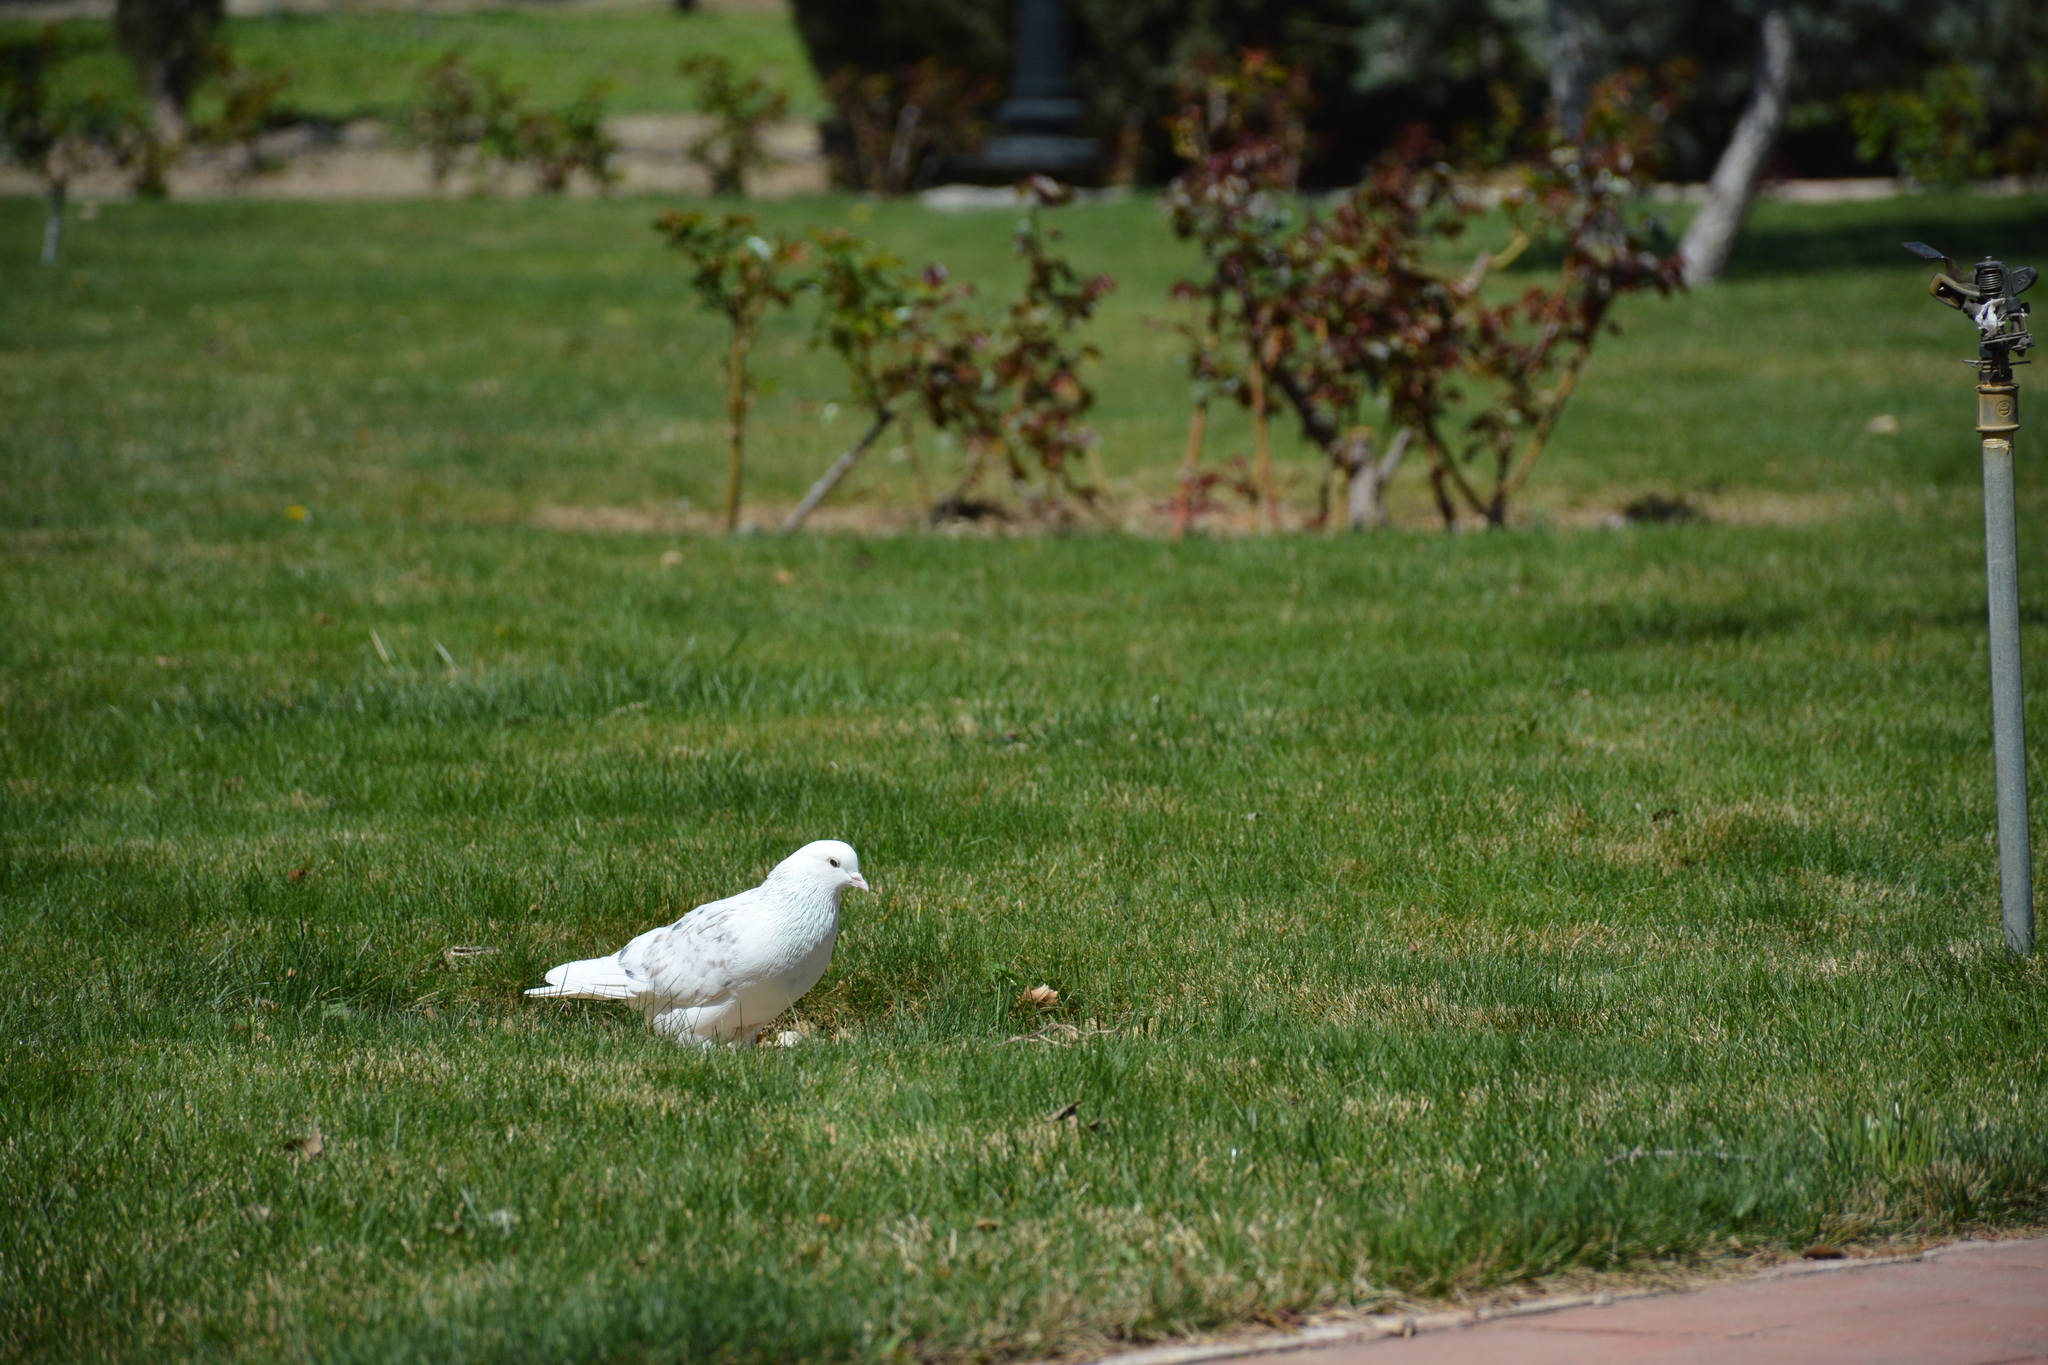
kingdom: Animalia
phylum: Chordata
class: Aves
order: Columbiformes
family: Columbidae
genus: Columba
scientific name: Columba livia
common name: Rock pigeon
